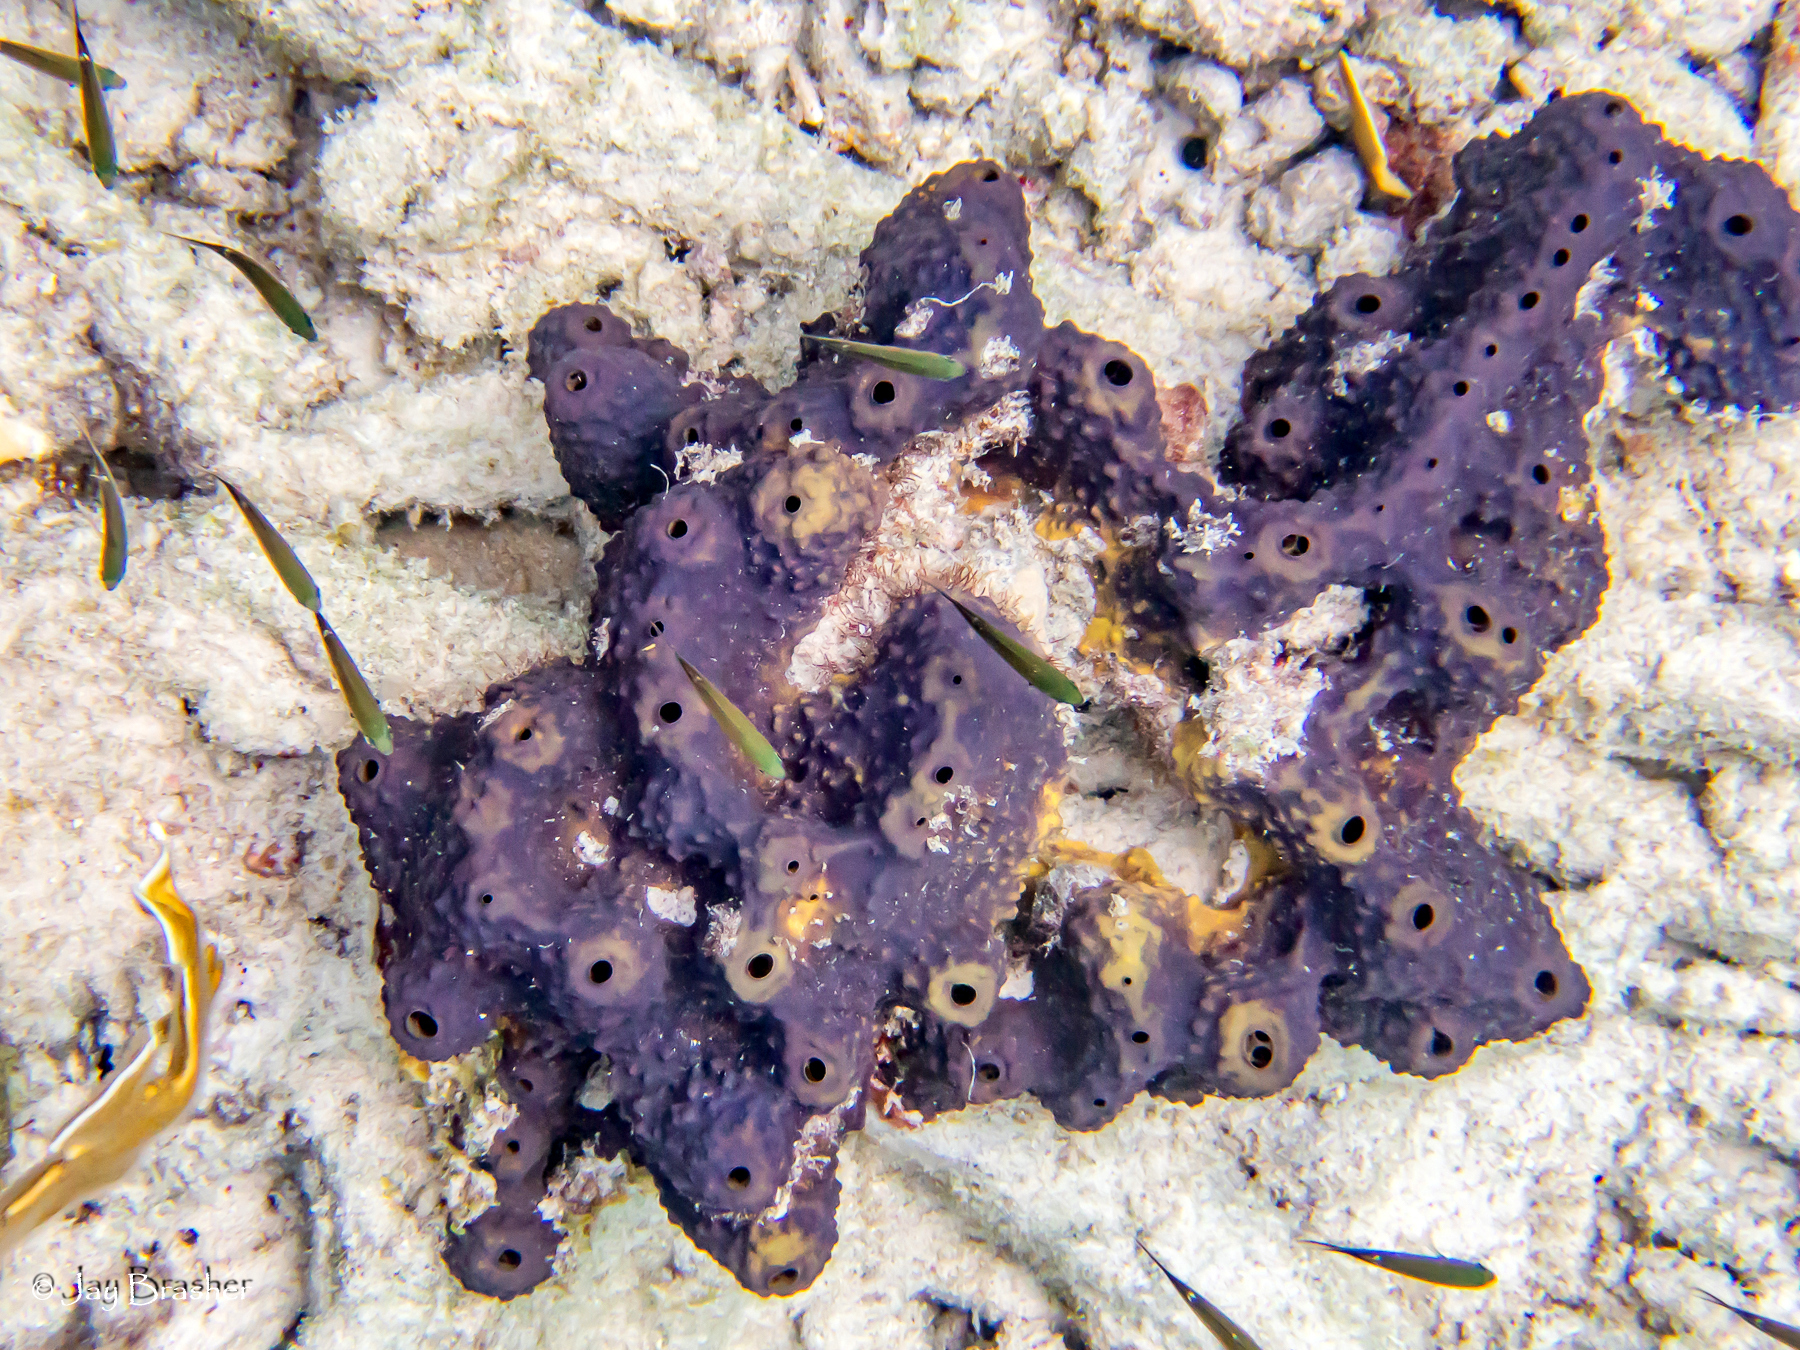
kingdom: Animalia
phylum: Chordata
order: Perciformes
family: Pomacentridae
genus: Chromis
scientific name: Chromis multilineata
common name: Brown chromis
